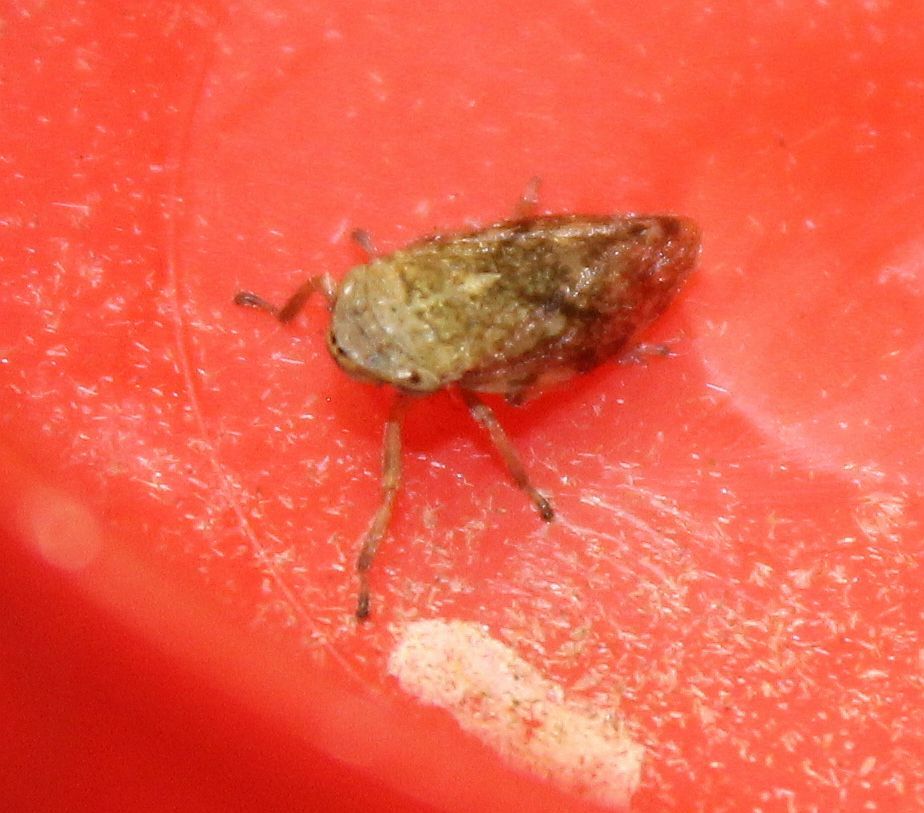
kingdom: Animalia
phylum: Arthropoda
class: Insecta
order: Hemiptera
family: Aphrophoridae
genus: Philaenus
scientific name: Philaenus spumarius
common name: Meadow spittlebug
